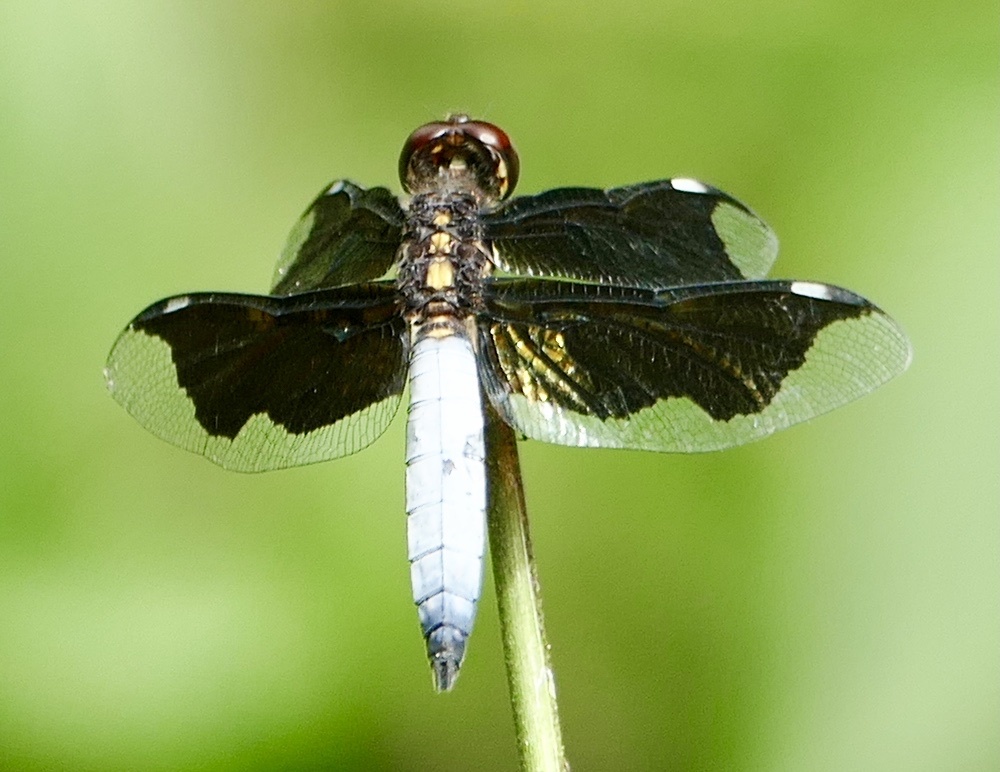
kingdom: Animalia
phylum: Arthropoda
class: Insecta
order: Odonata
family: Libellulidae
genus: Palpopleura
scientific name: Palpopleura lucia
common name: Lucia widow
